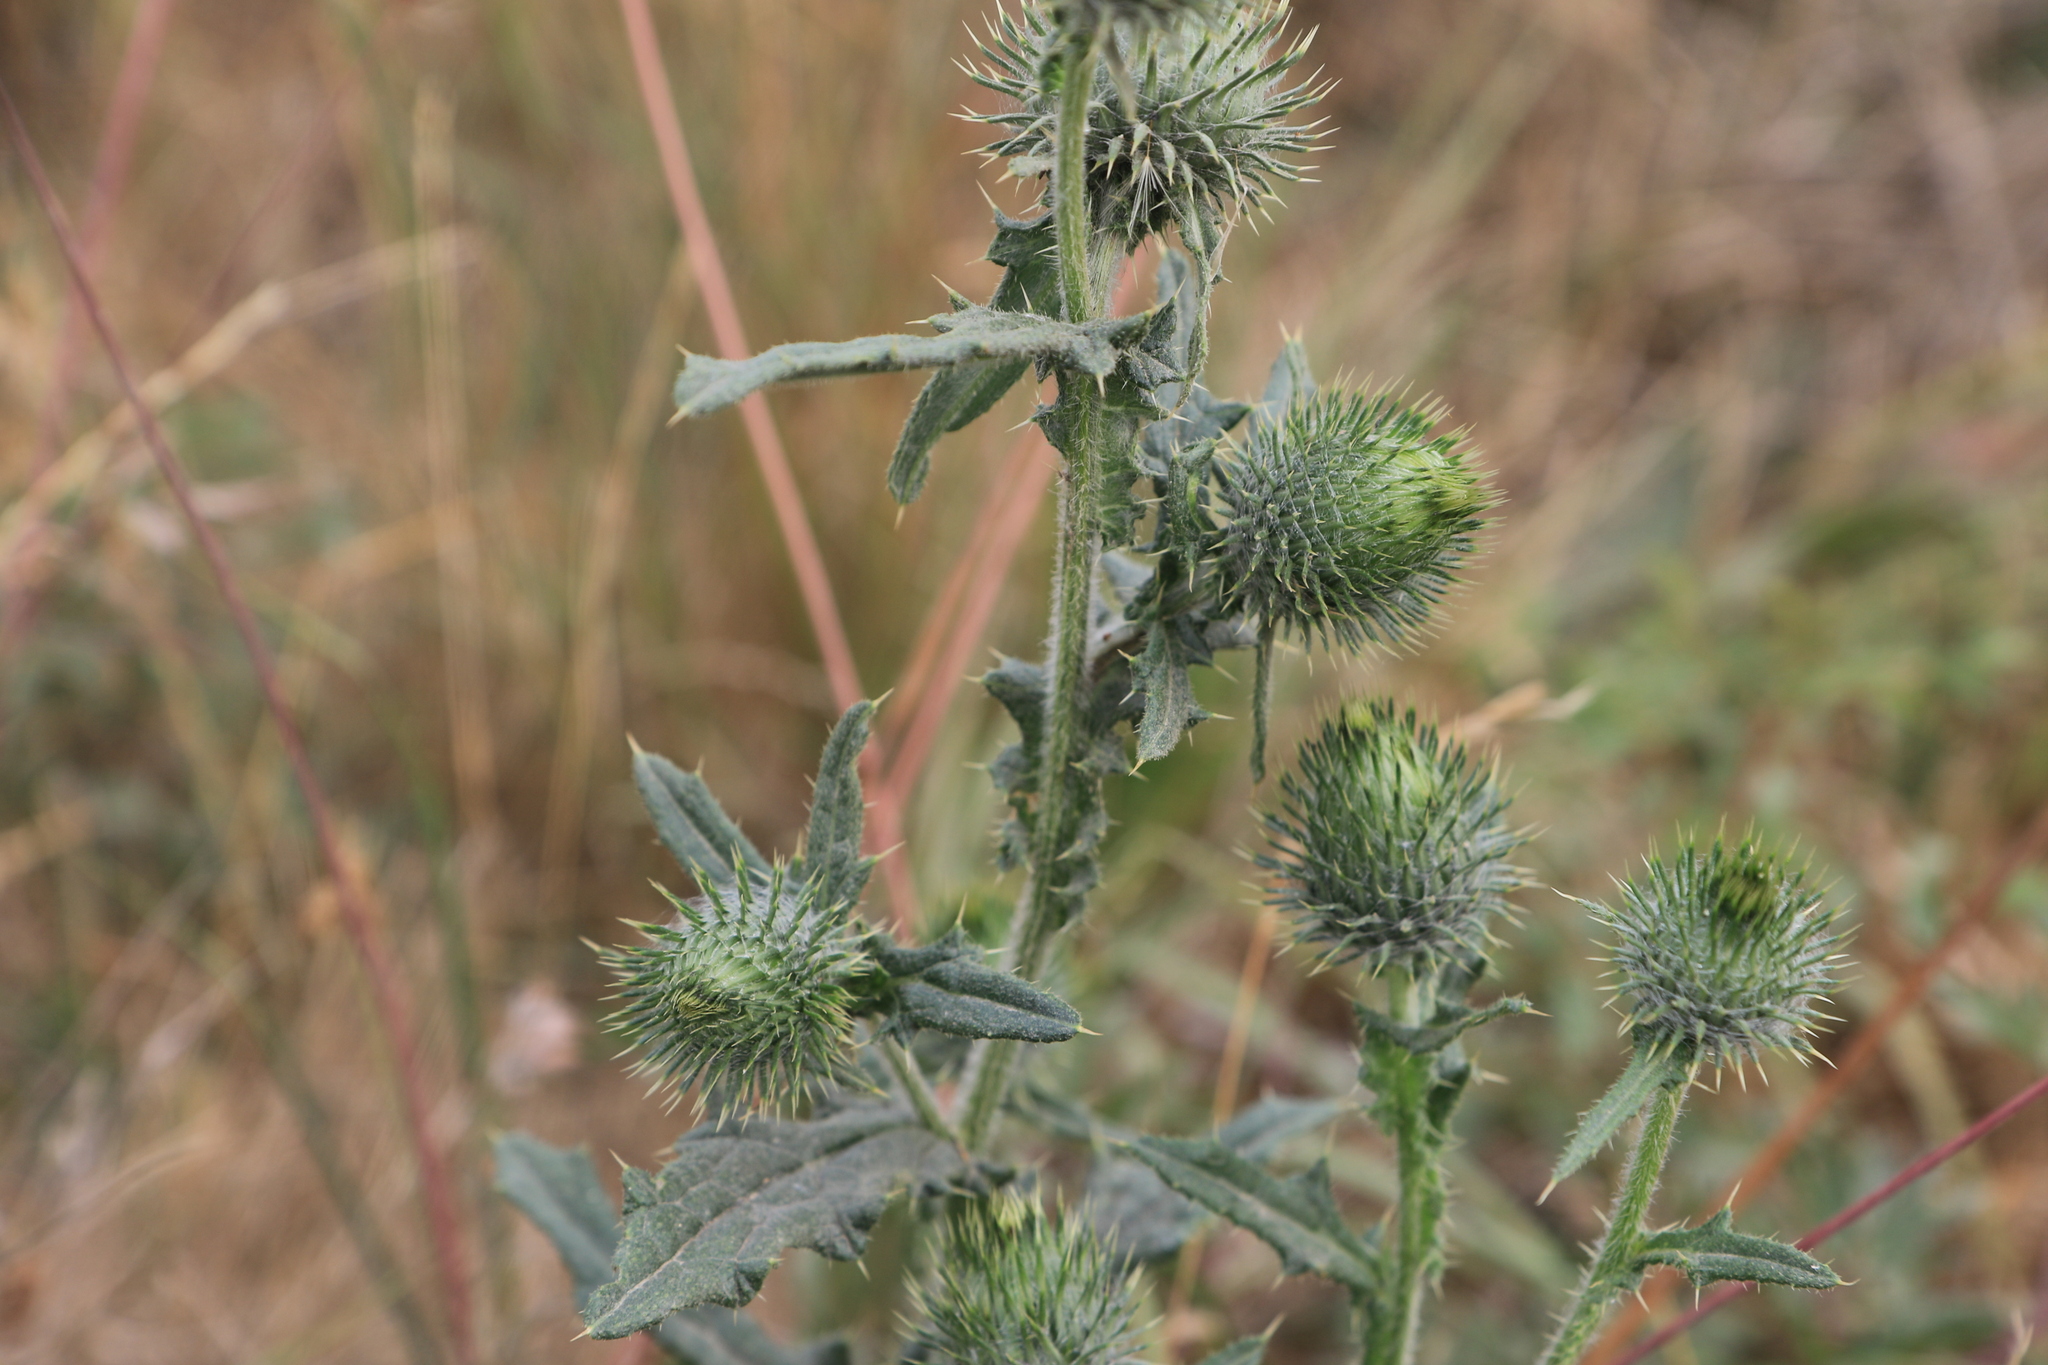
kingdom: Plantae
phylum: Tracheophyta
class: Magnoliopsida
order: Asterales
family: Asteraceae
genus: Cirsium
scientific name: Cirsium vulgare
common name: Bull thistle
